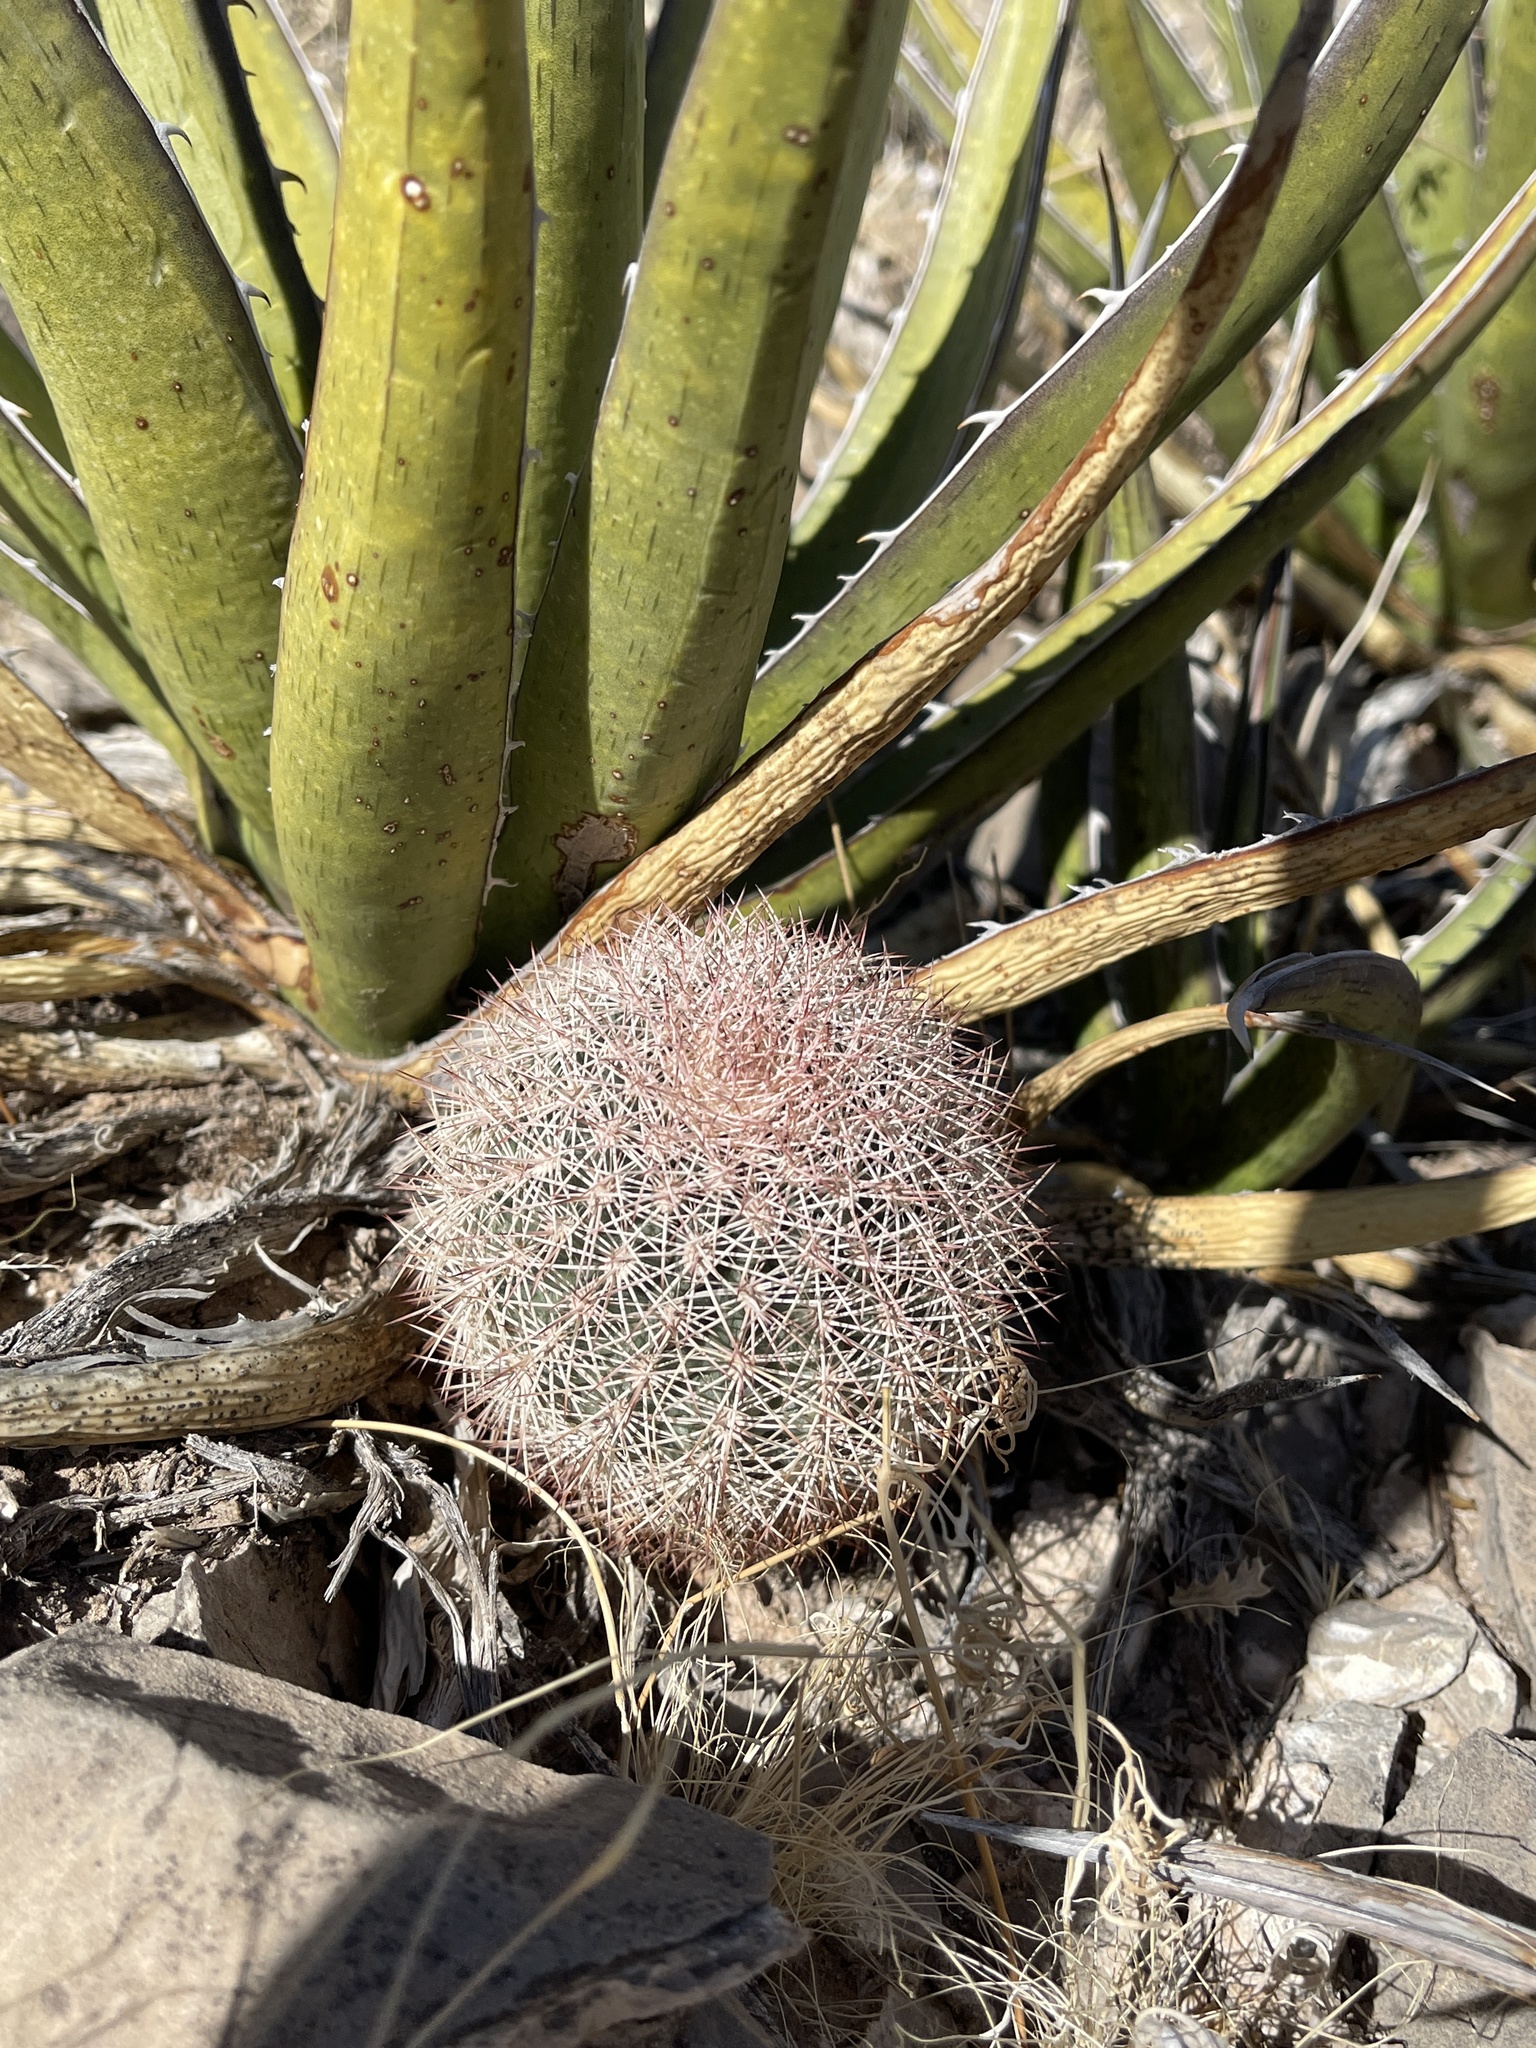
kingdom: Plantae
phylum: Tracheophyta
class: Magnoliopsida
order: Caryophyllales
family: Cactaceae
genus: Echinocereus
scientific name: Echinocereus dasyacanthus
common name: Spiny hedgehog cactus
